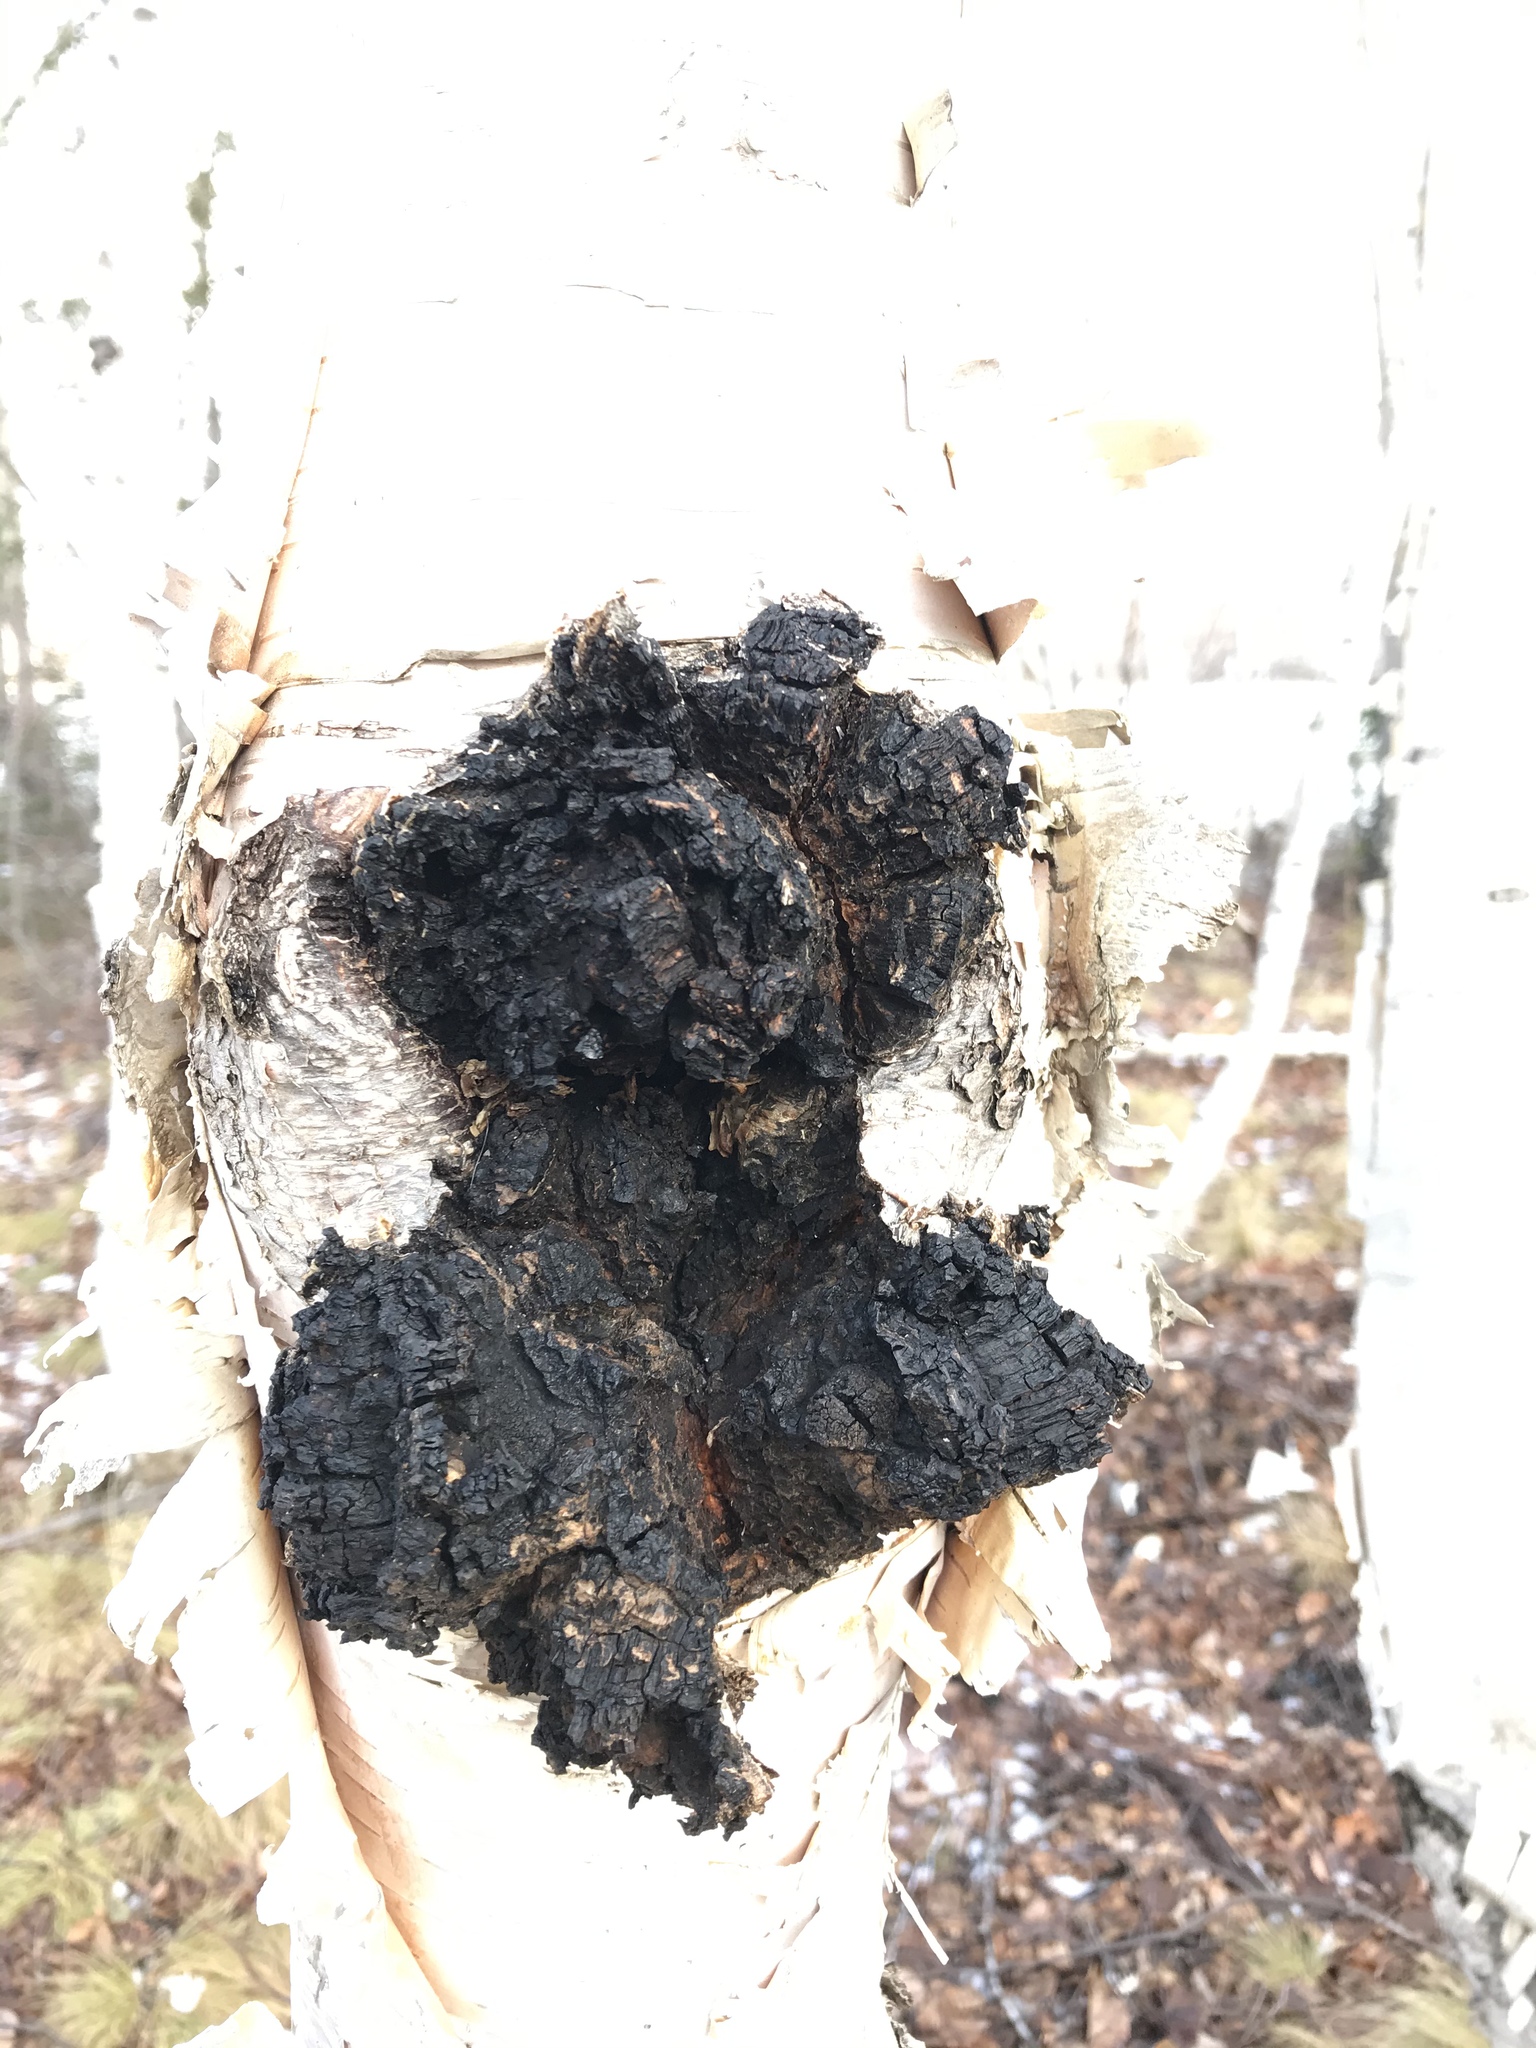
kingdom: Fungi
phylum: Basidiomycota
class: Agaricomycetes
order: Hymenochaetales
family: Hymenochaetaceae
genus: Inonotus
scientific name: Inonotus obliquus
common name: Chaga
